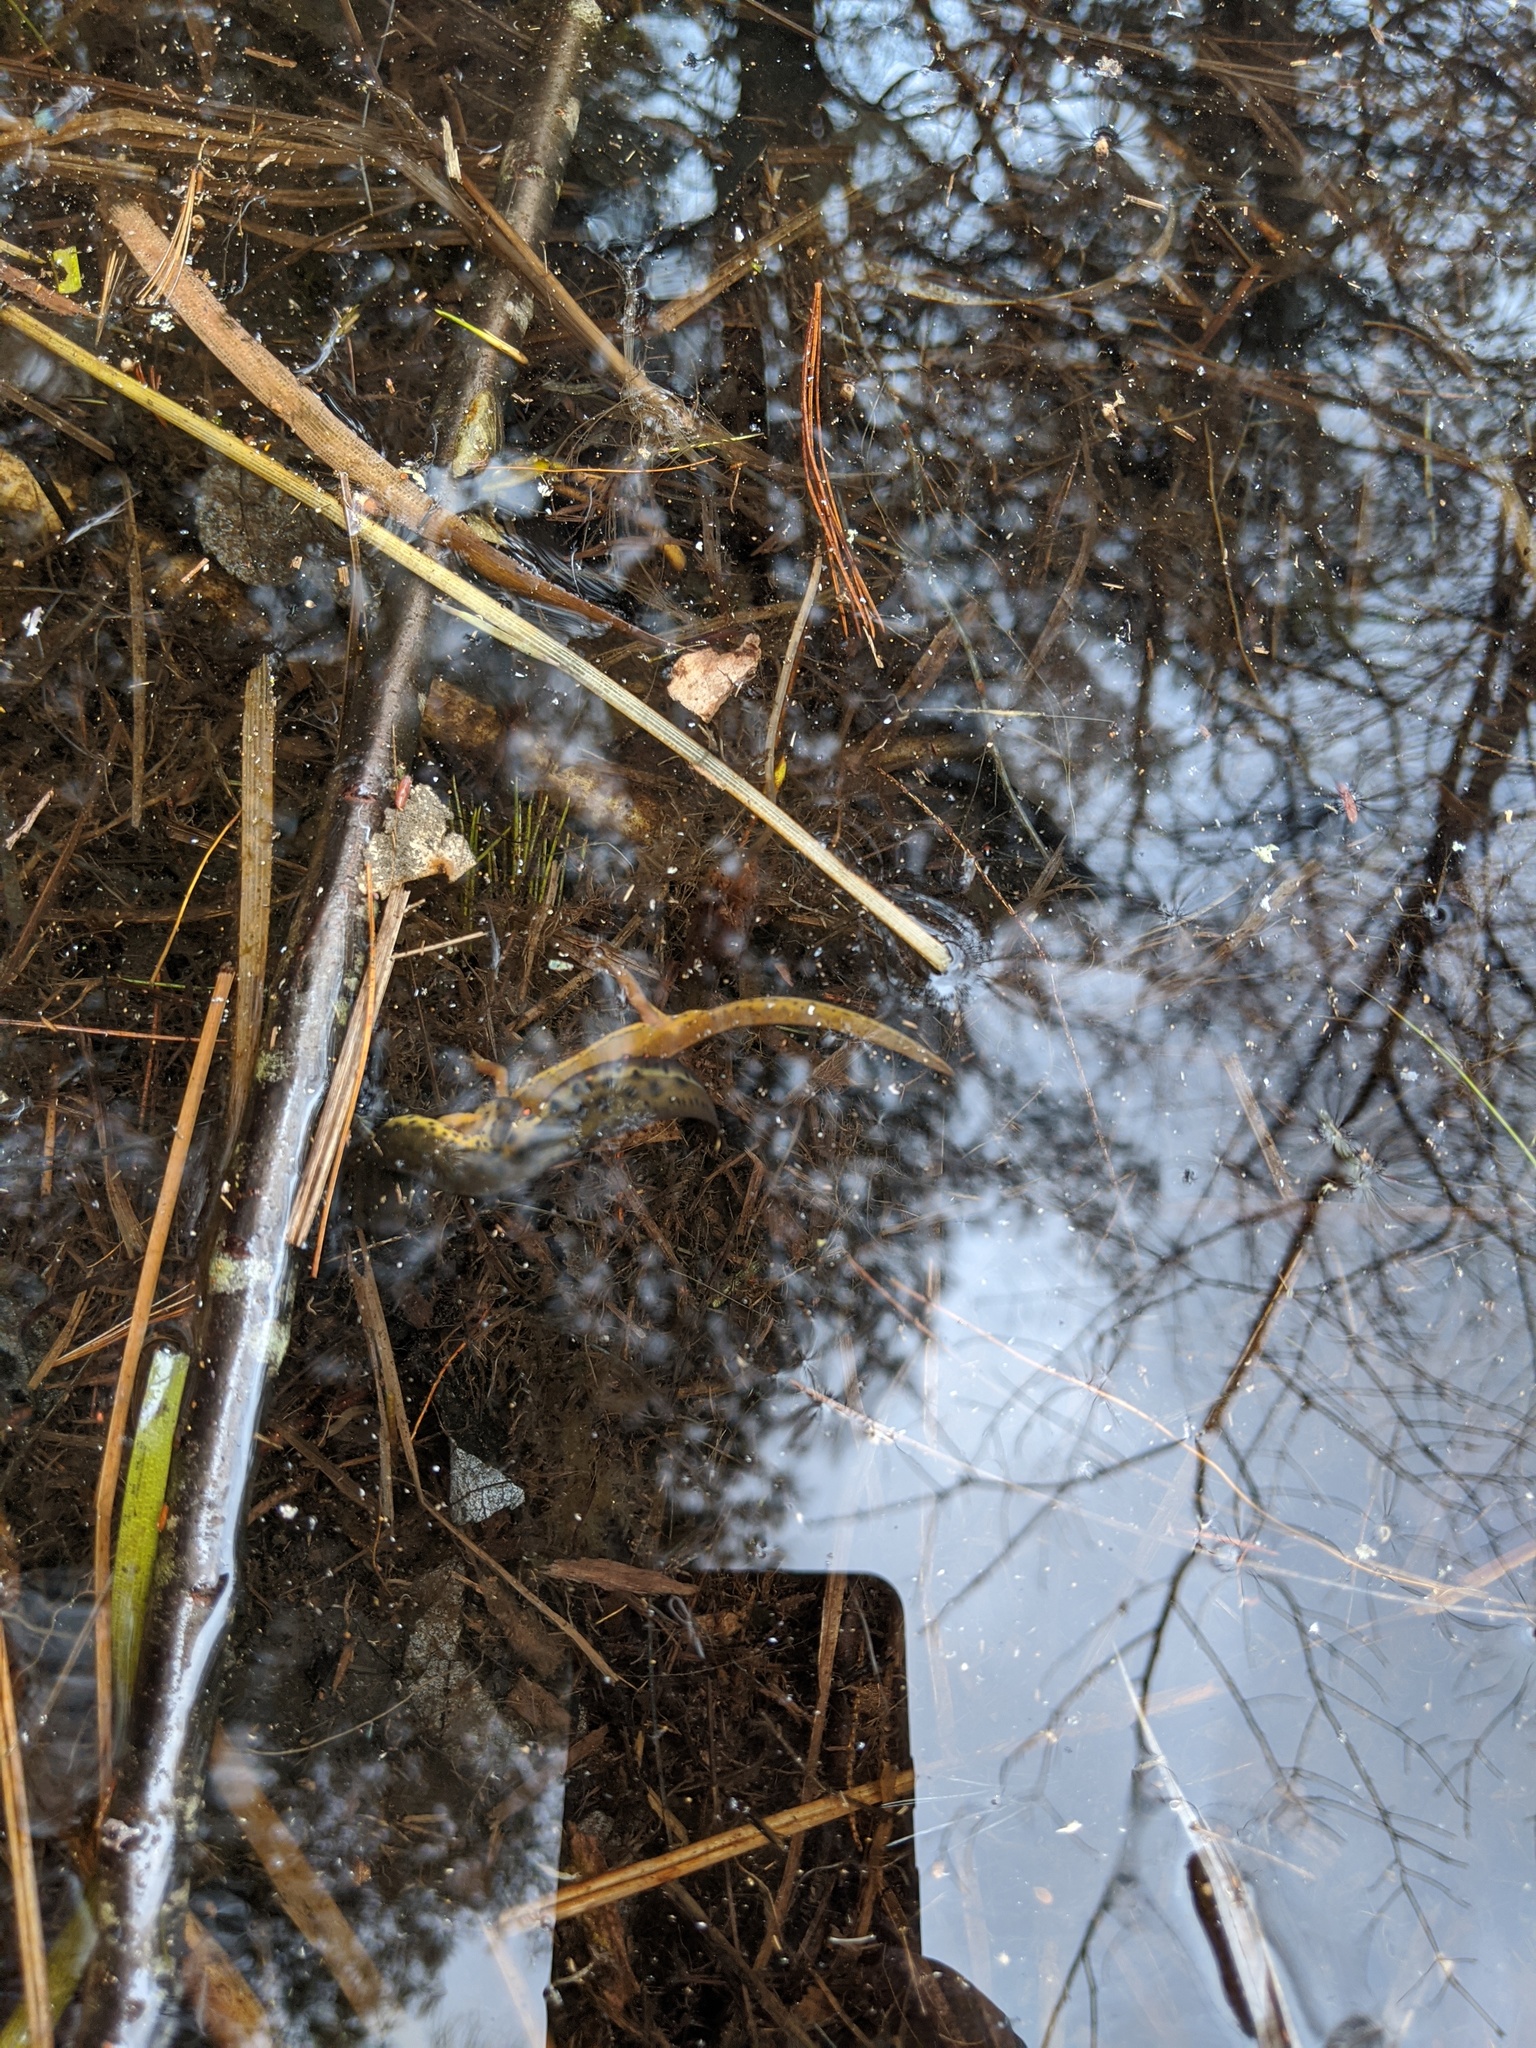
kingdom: Animalia
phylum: Chordata
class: Amphibia
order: Caudata
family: Salamandridae
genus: Notophthalmus
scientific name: Notophthalmus viridescens
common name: Eastern newt
